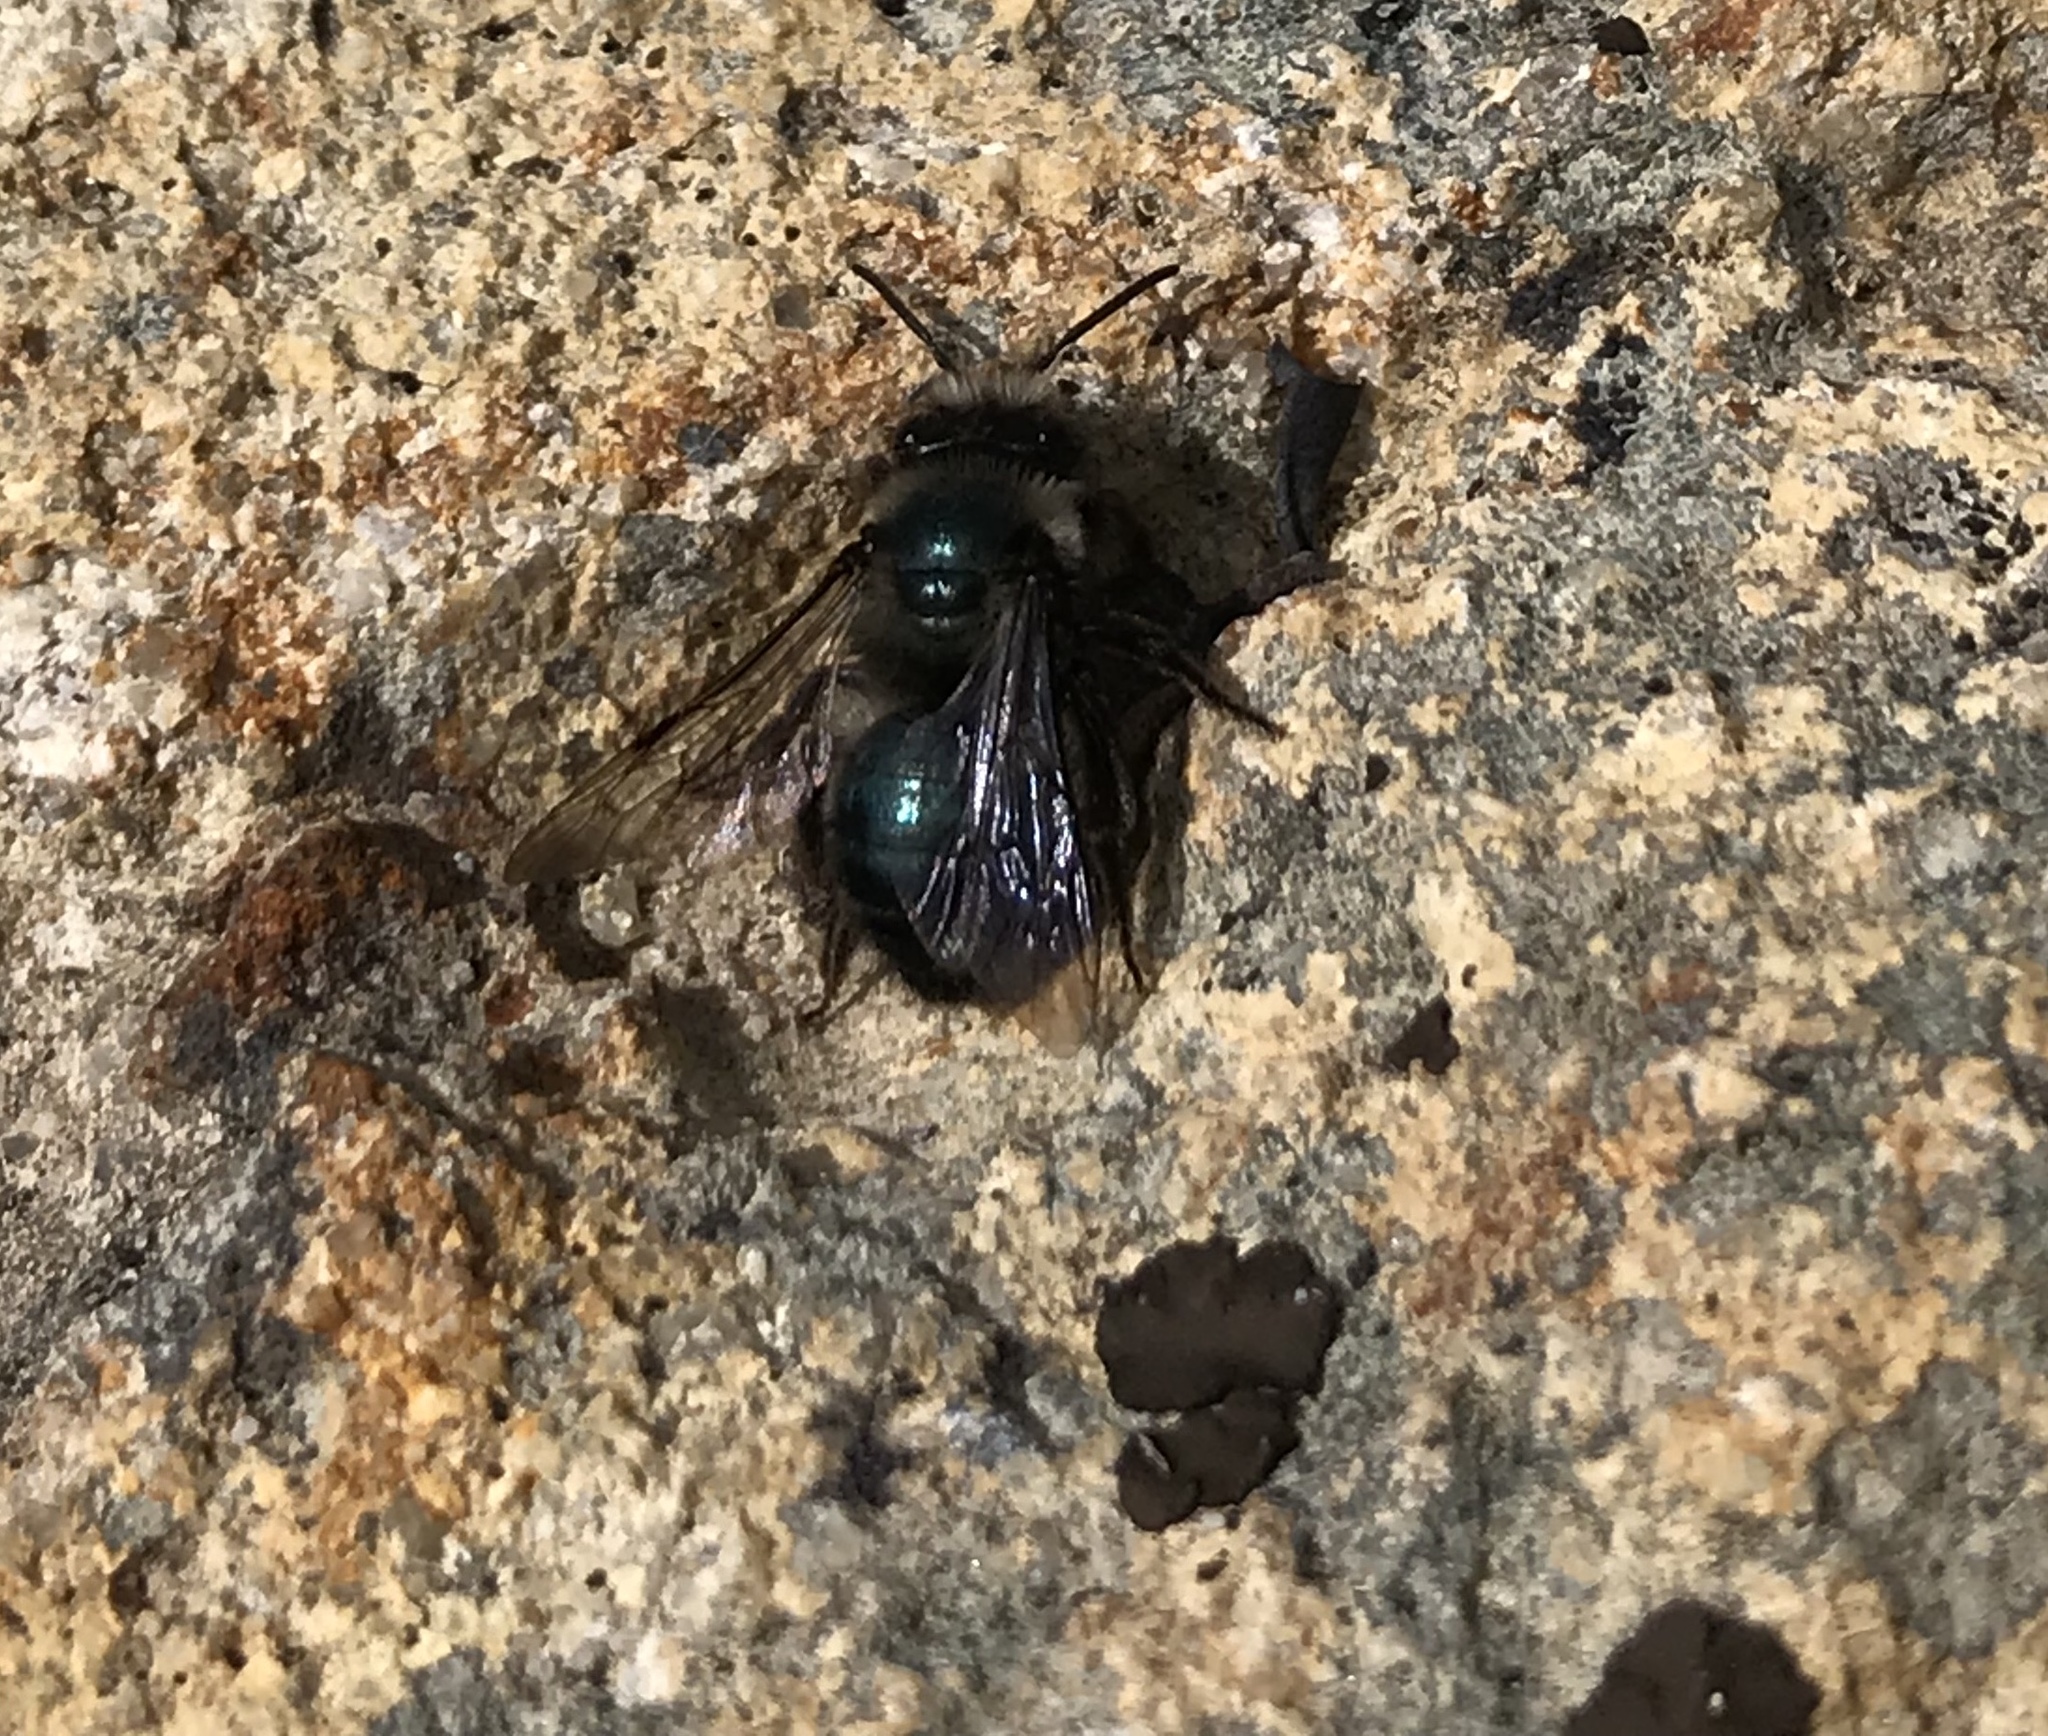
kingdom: Animalia
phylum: Arthropoda
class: Insecta
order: Hymenoptera
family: Andrenidae
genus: Andrena
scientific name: Andrena cerasifolii
